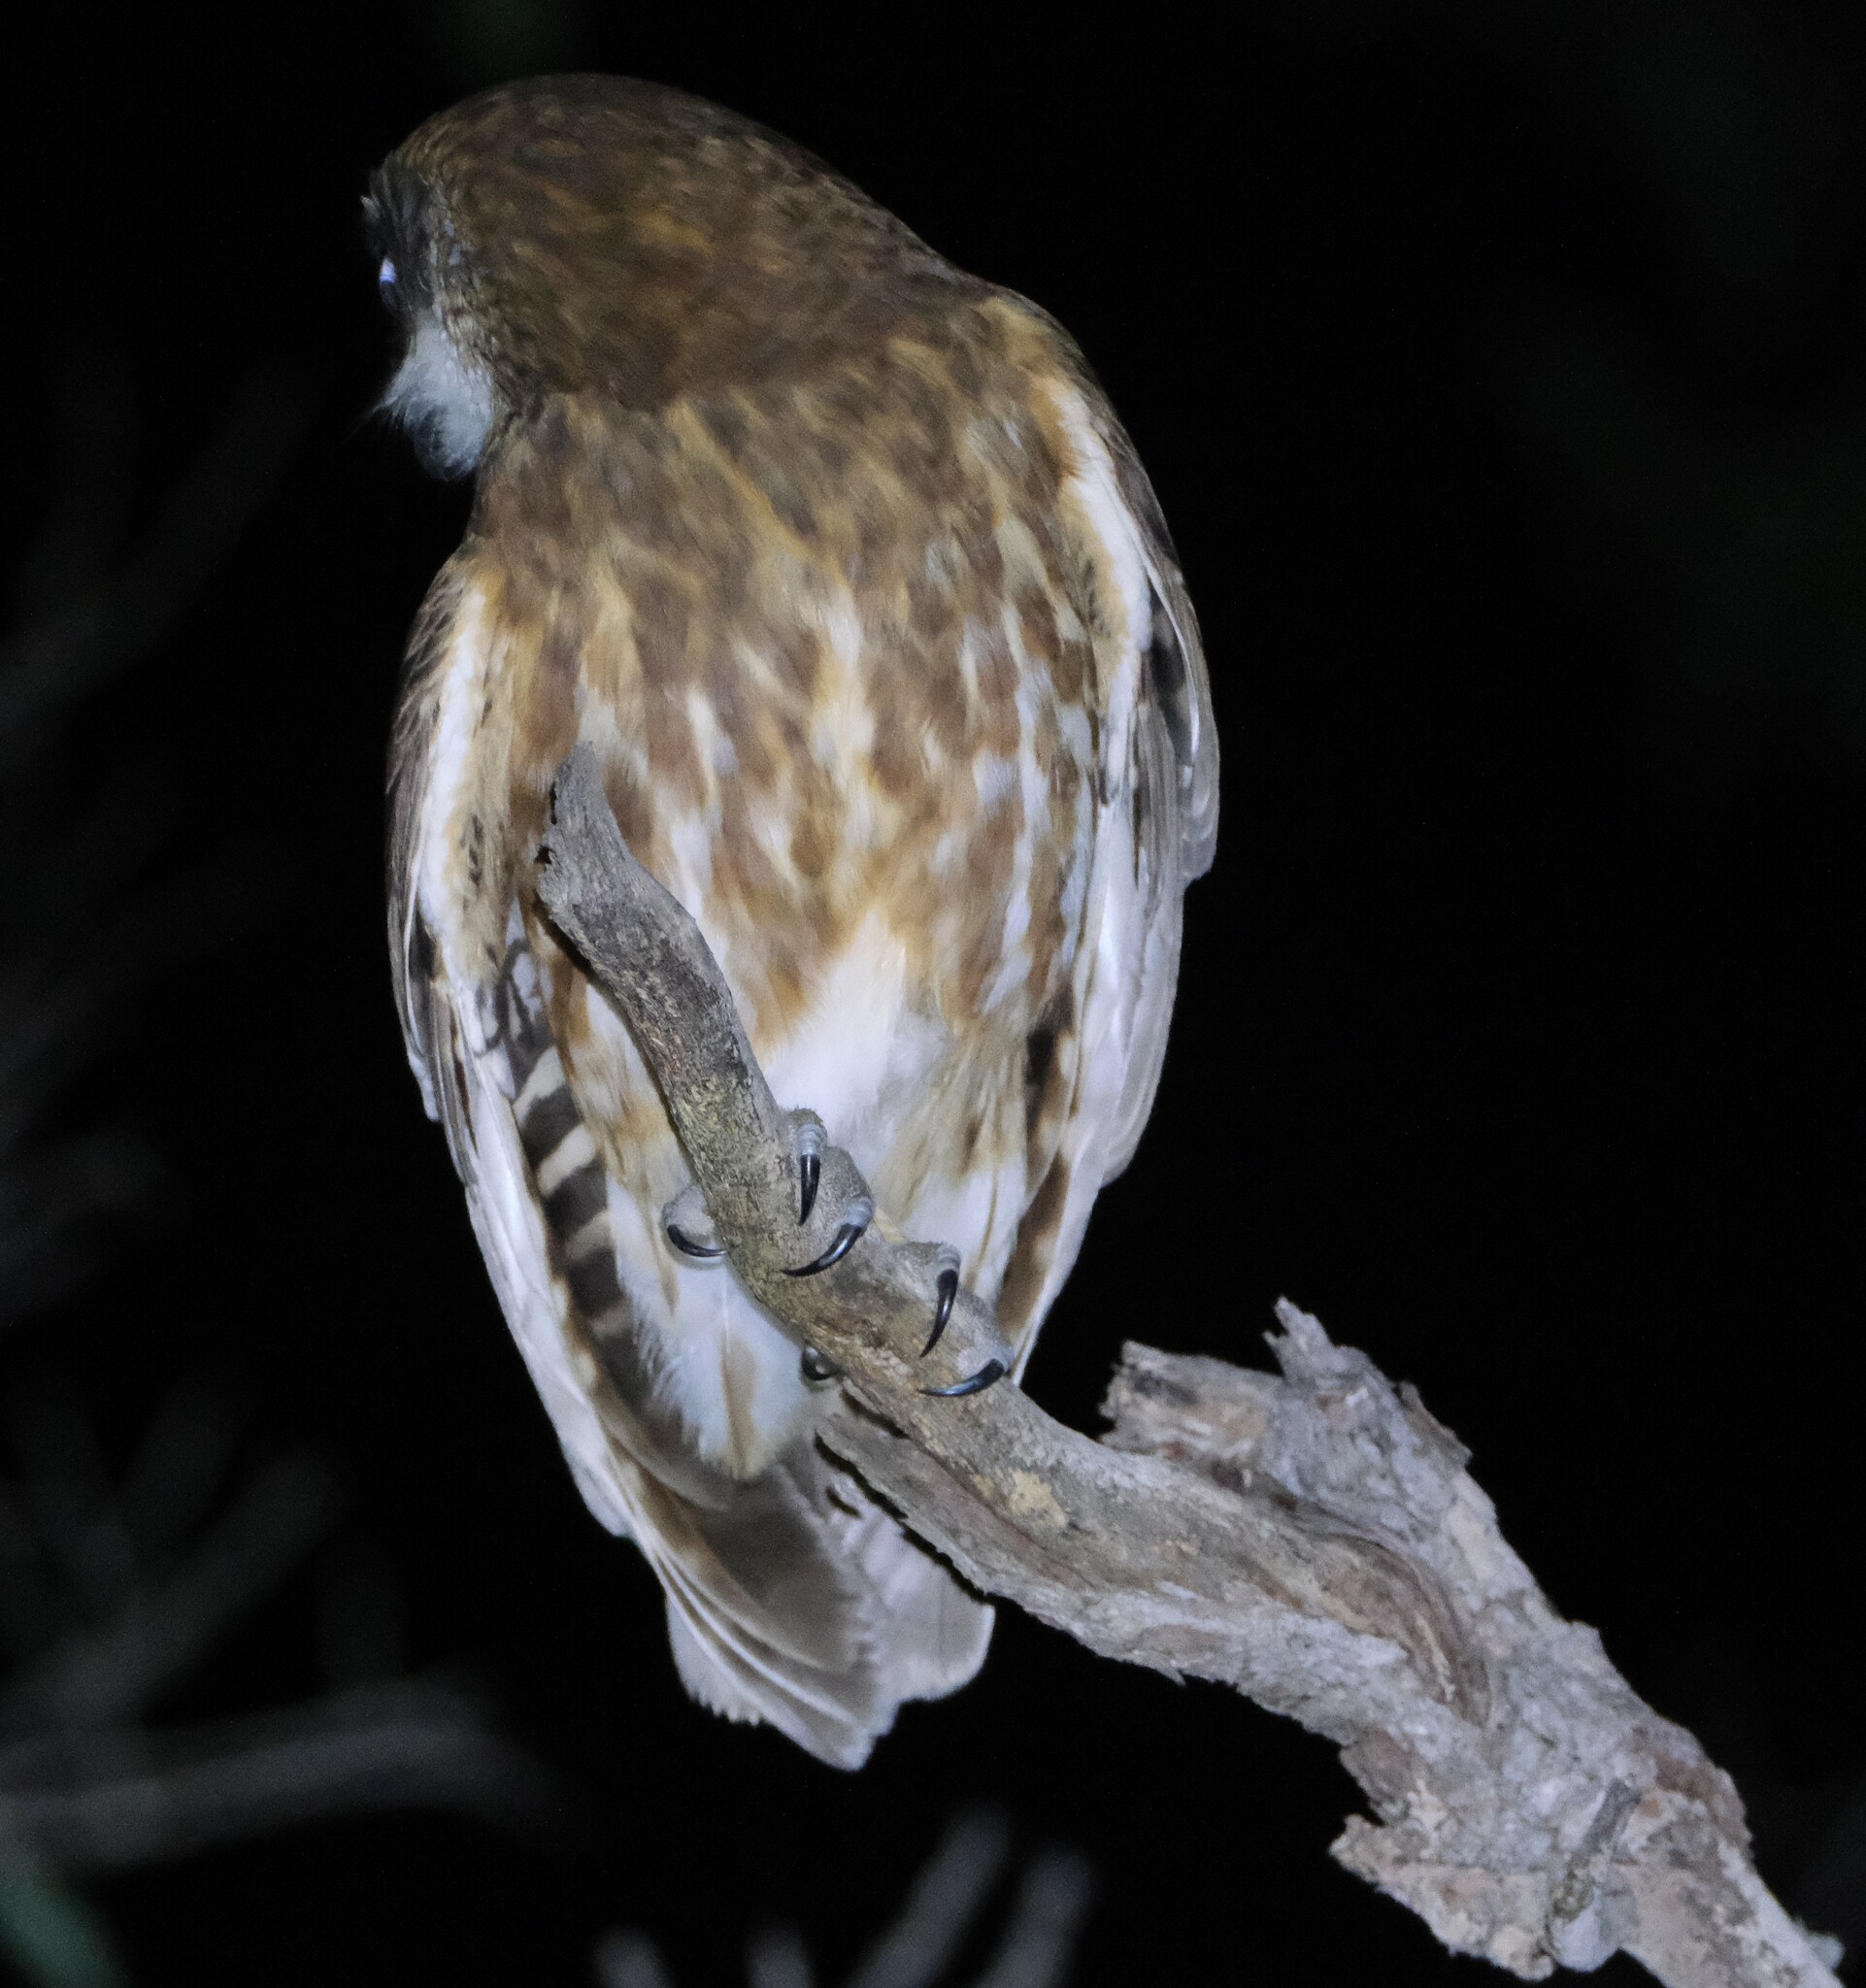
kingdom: Animalia
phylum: Chordata
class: Aves
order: Strigiformes
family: Strigidae
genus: Ninox
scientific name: Ninox boobook
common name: Southern boobook
